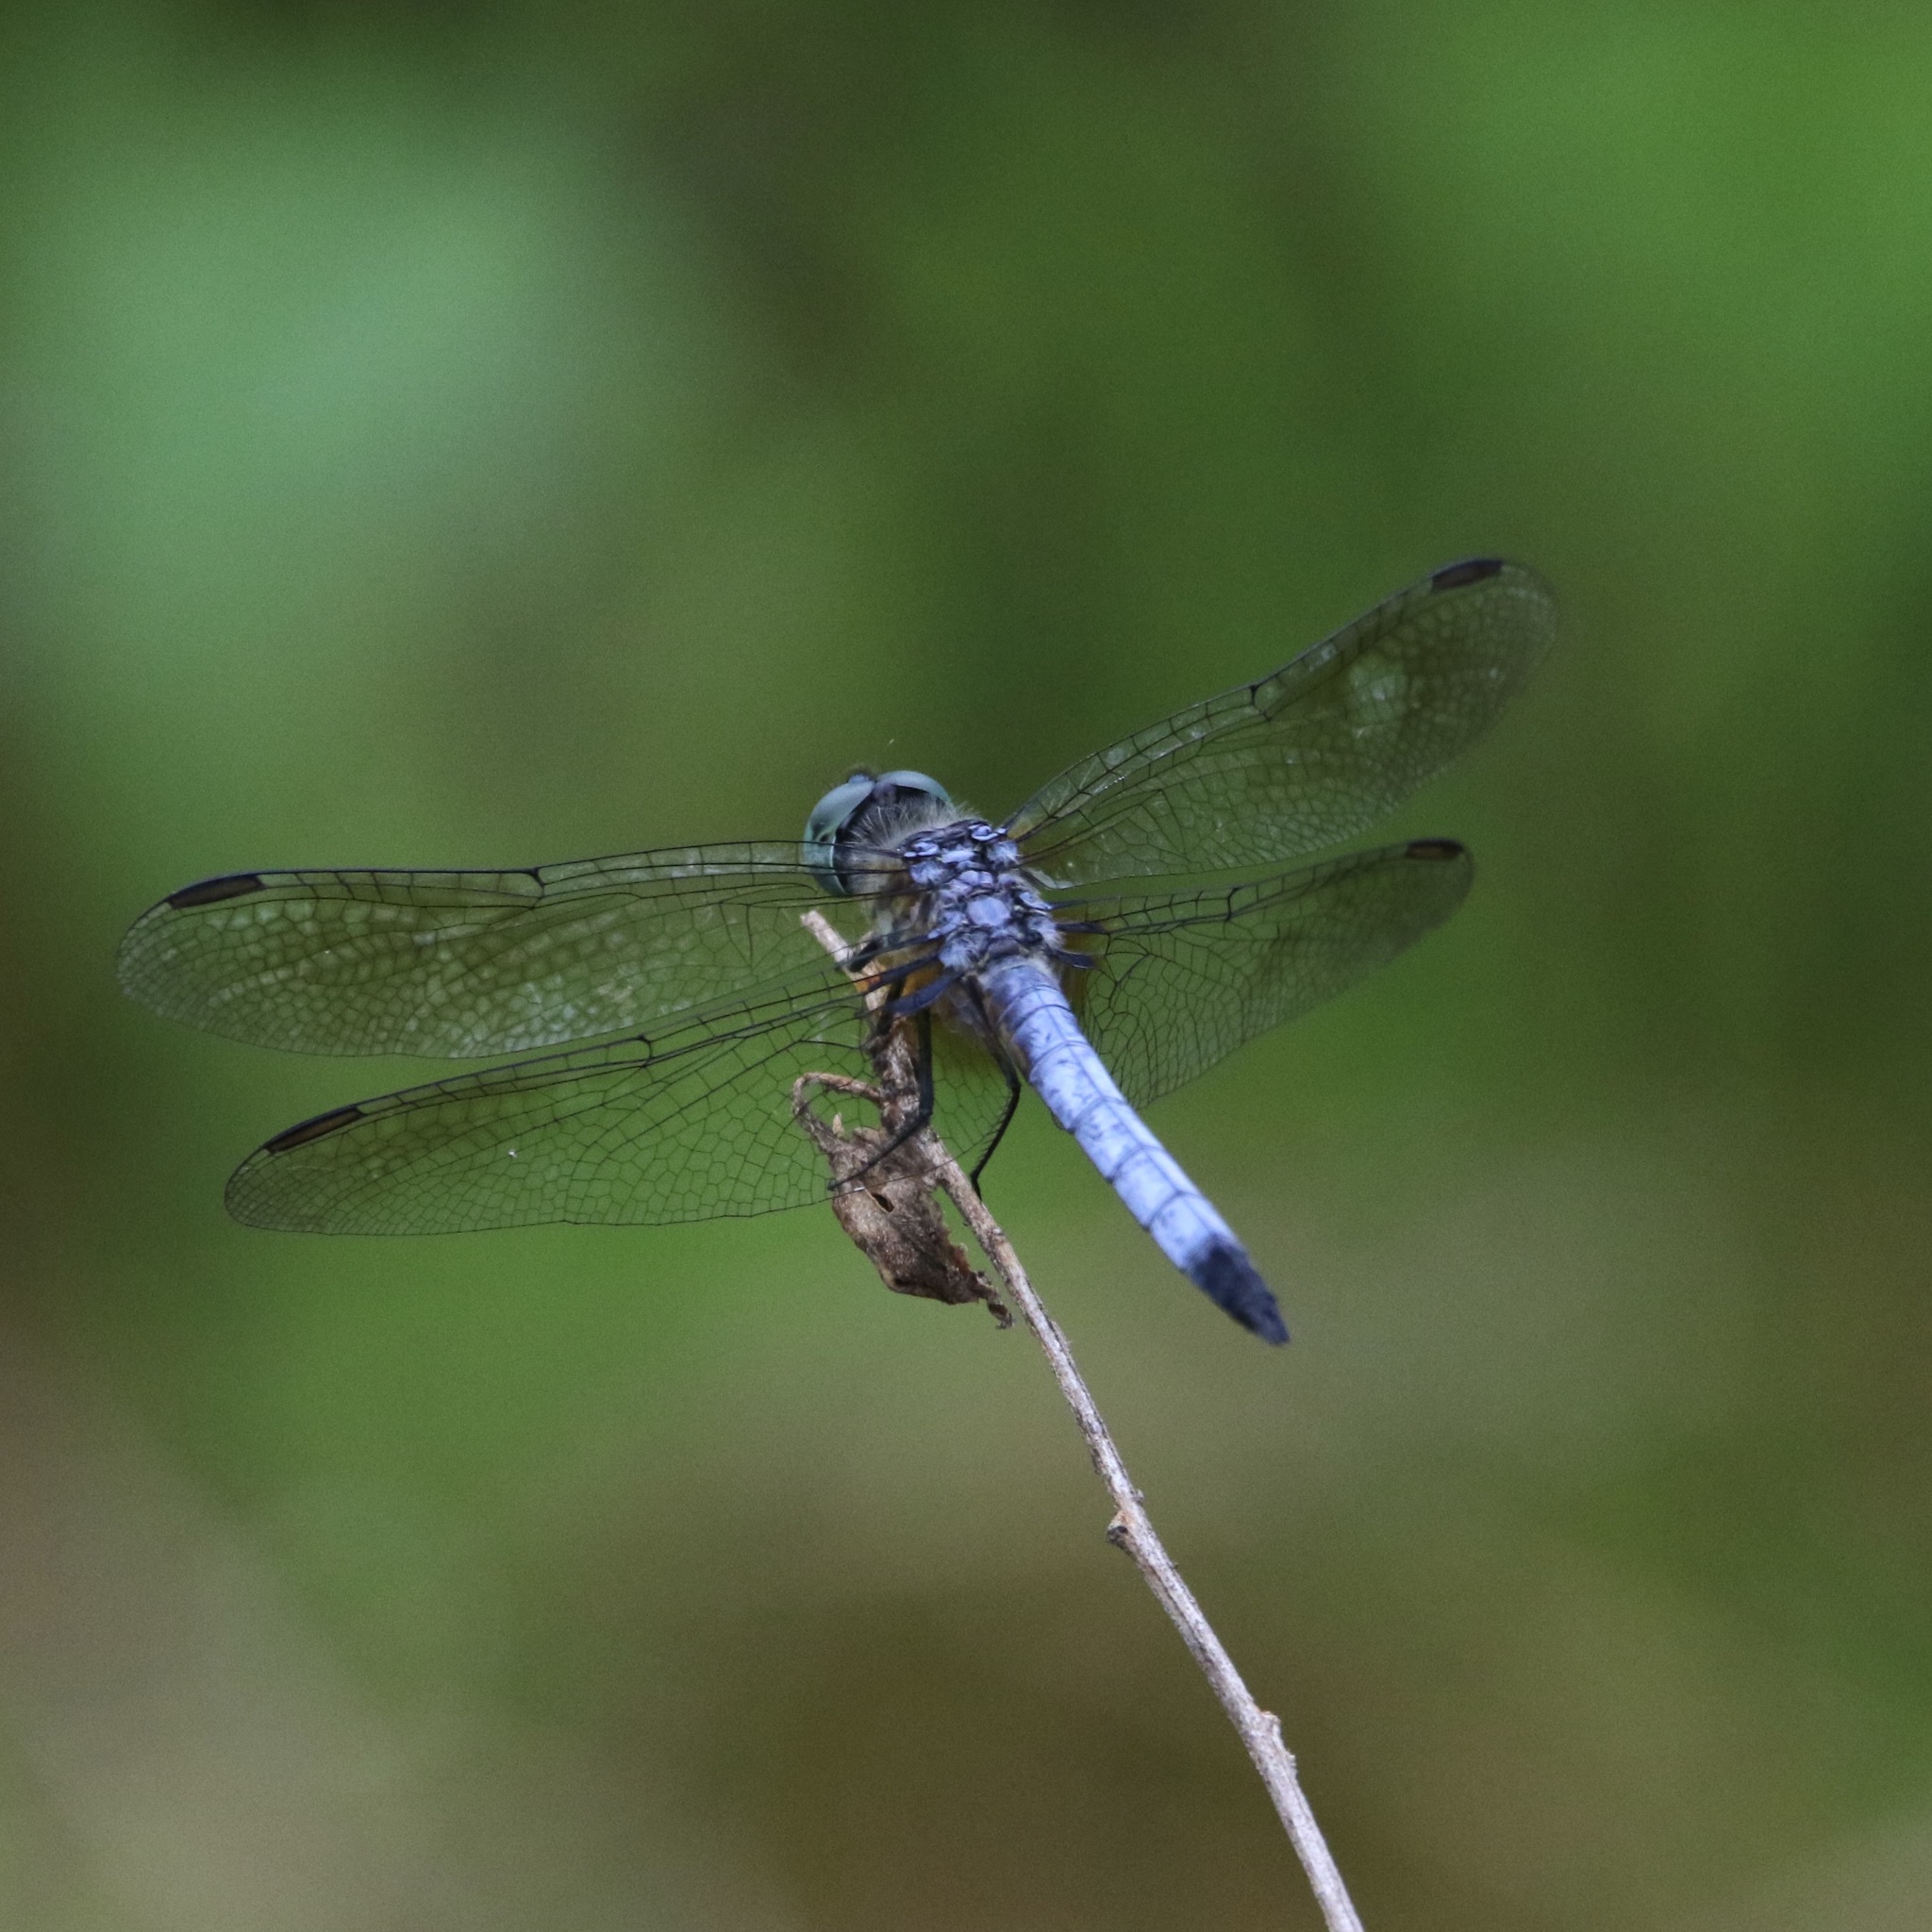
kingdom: Animalia
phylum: Arthropoda
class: Insecta
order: Odonata
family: Libellulidae
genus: Pachydiplax
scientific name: Pachydiplax longipennis
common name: Blue dasher
